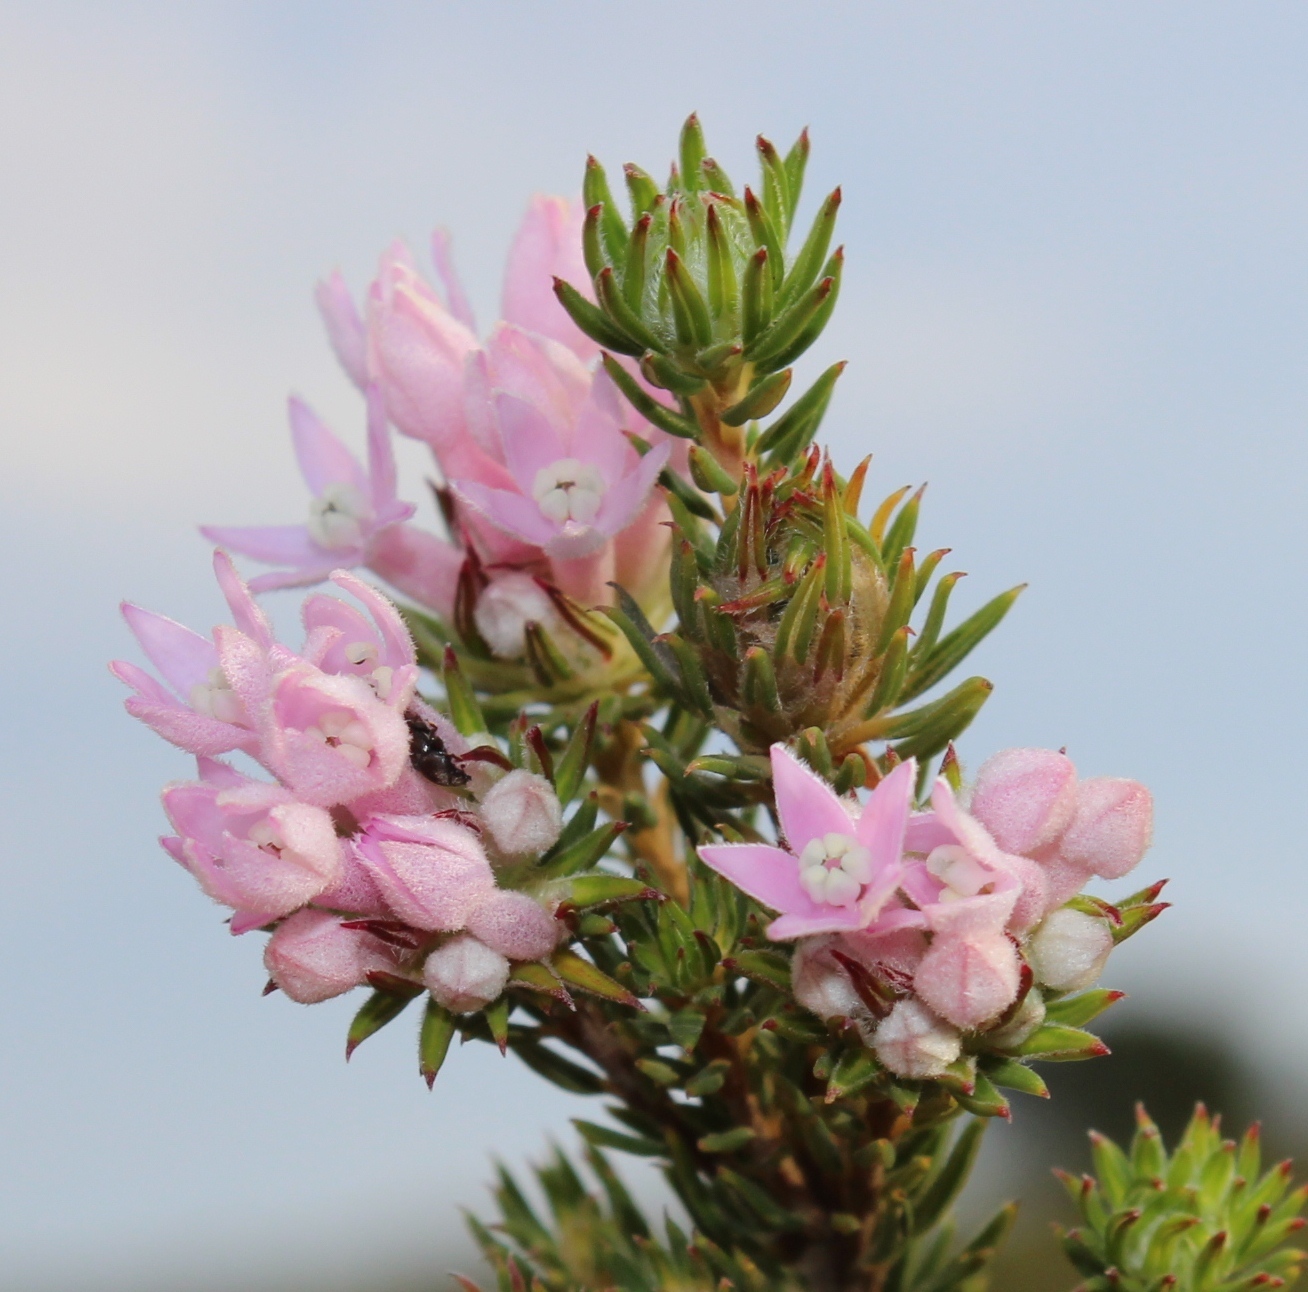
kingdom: Plantae
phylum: Tracheophyta
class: Magnoliopsida
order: Rosales
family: Rhamnaceae
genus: Phylica
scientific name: Phylica gnidioides
